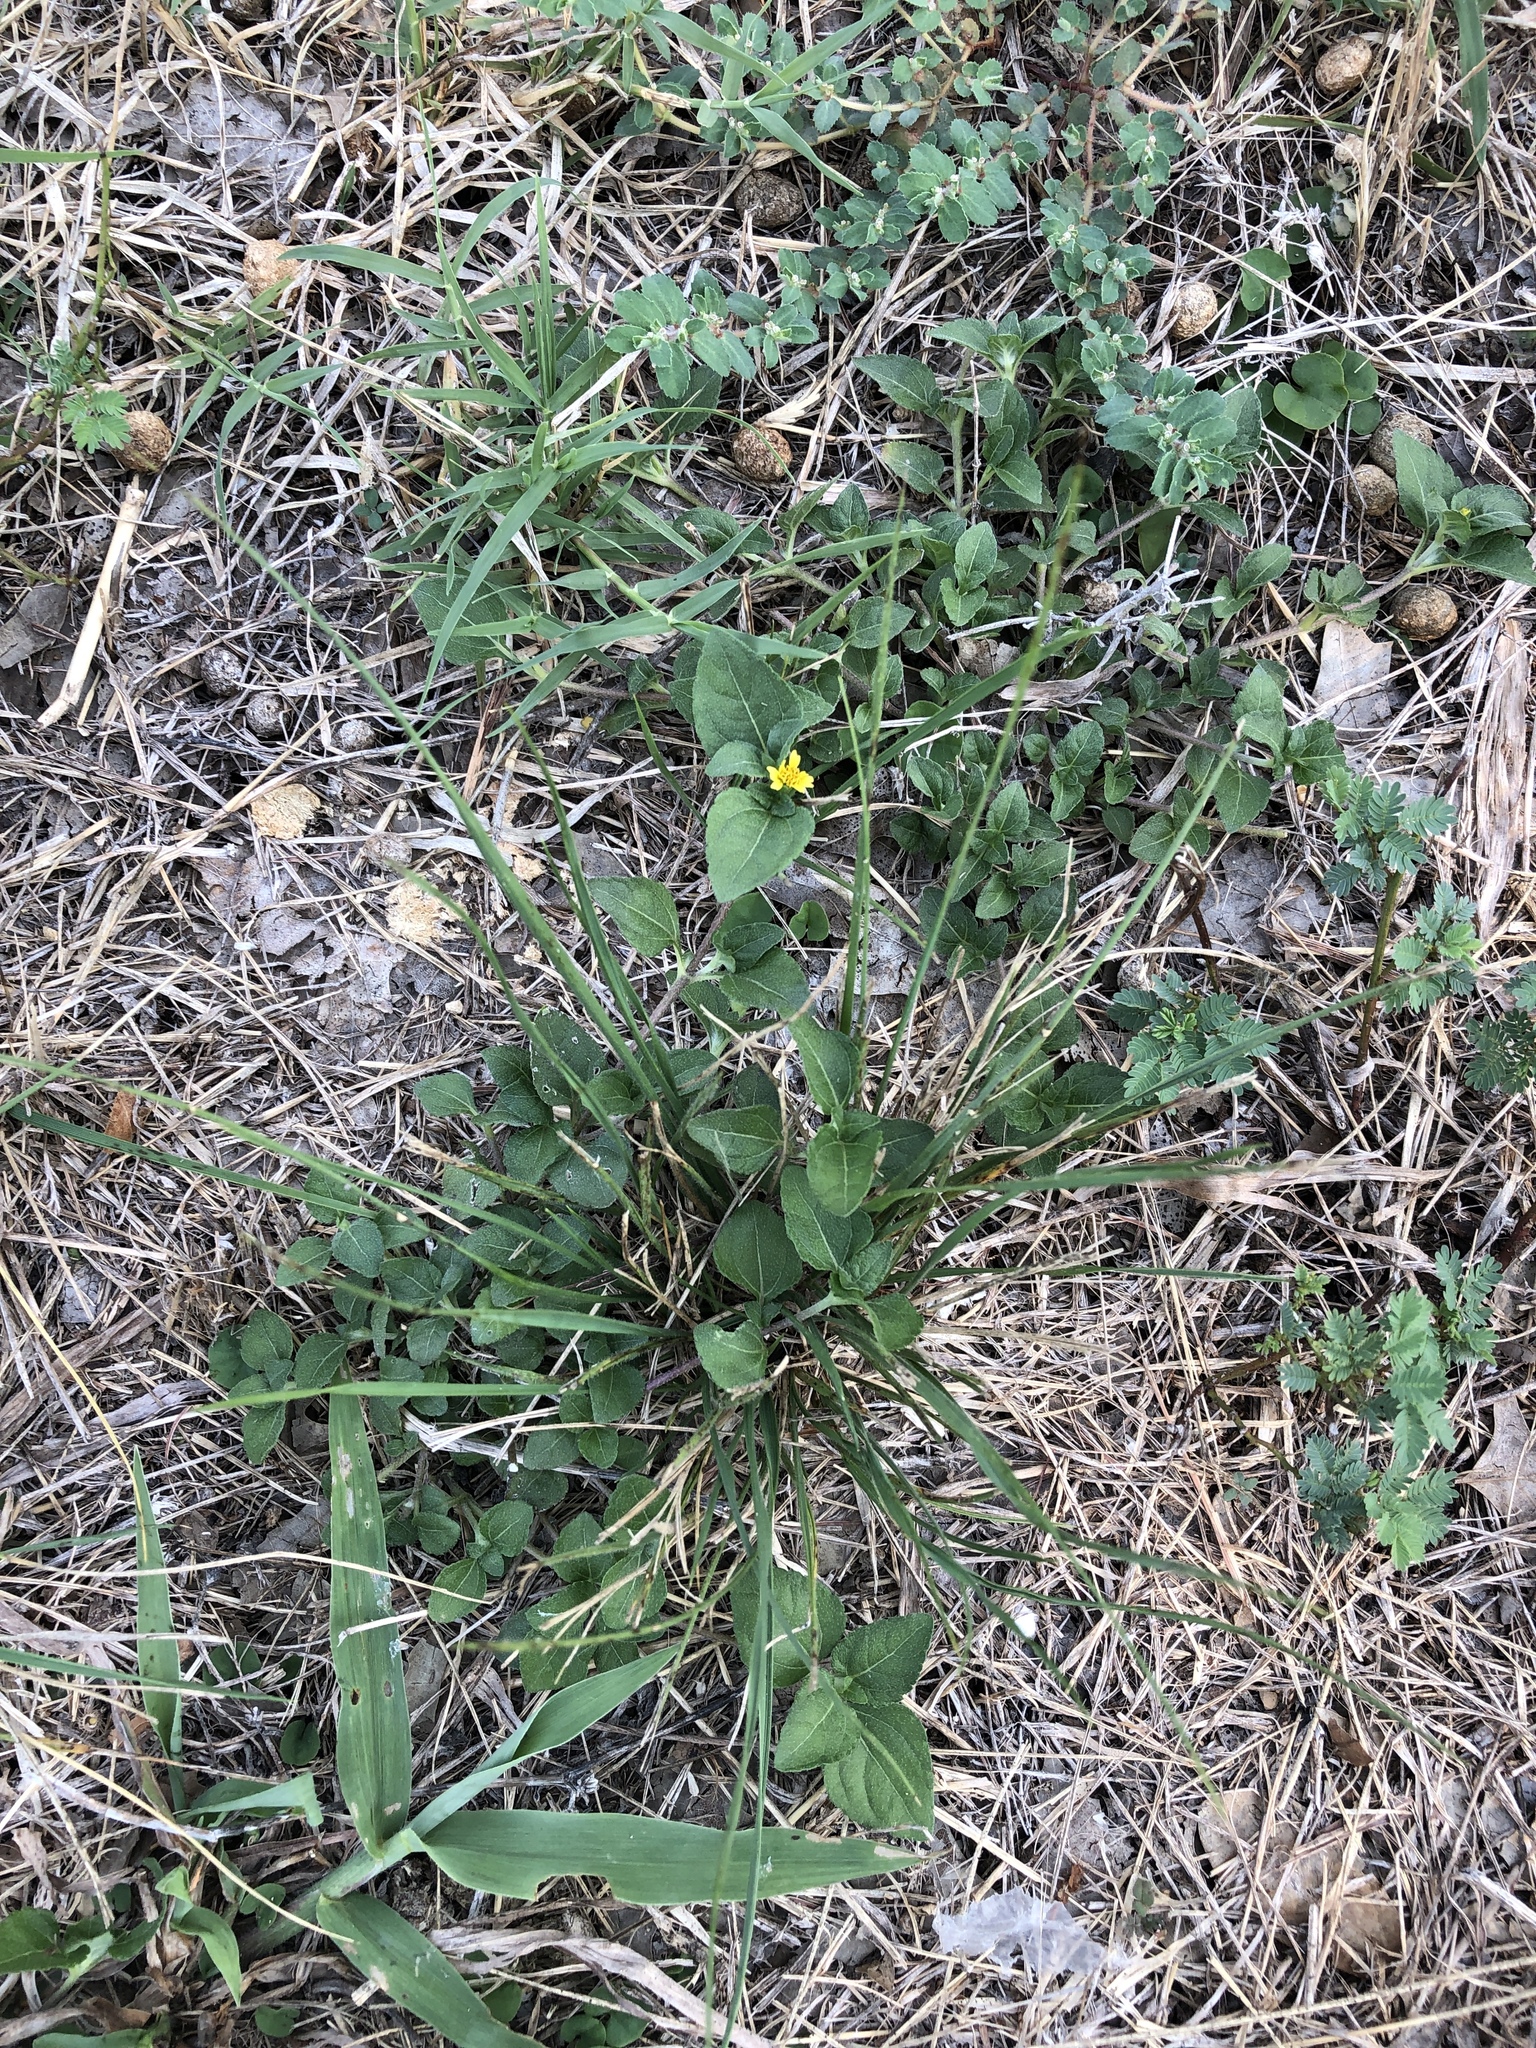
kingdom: Plantae
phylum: Tracheophyta
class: Magnoliopsida
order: Asterales
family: Asteraceae
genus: Calyptocarpus
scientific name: Calyptocarpus vialis
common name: Straggler daisy
